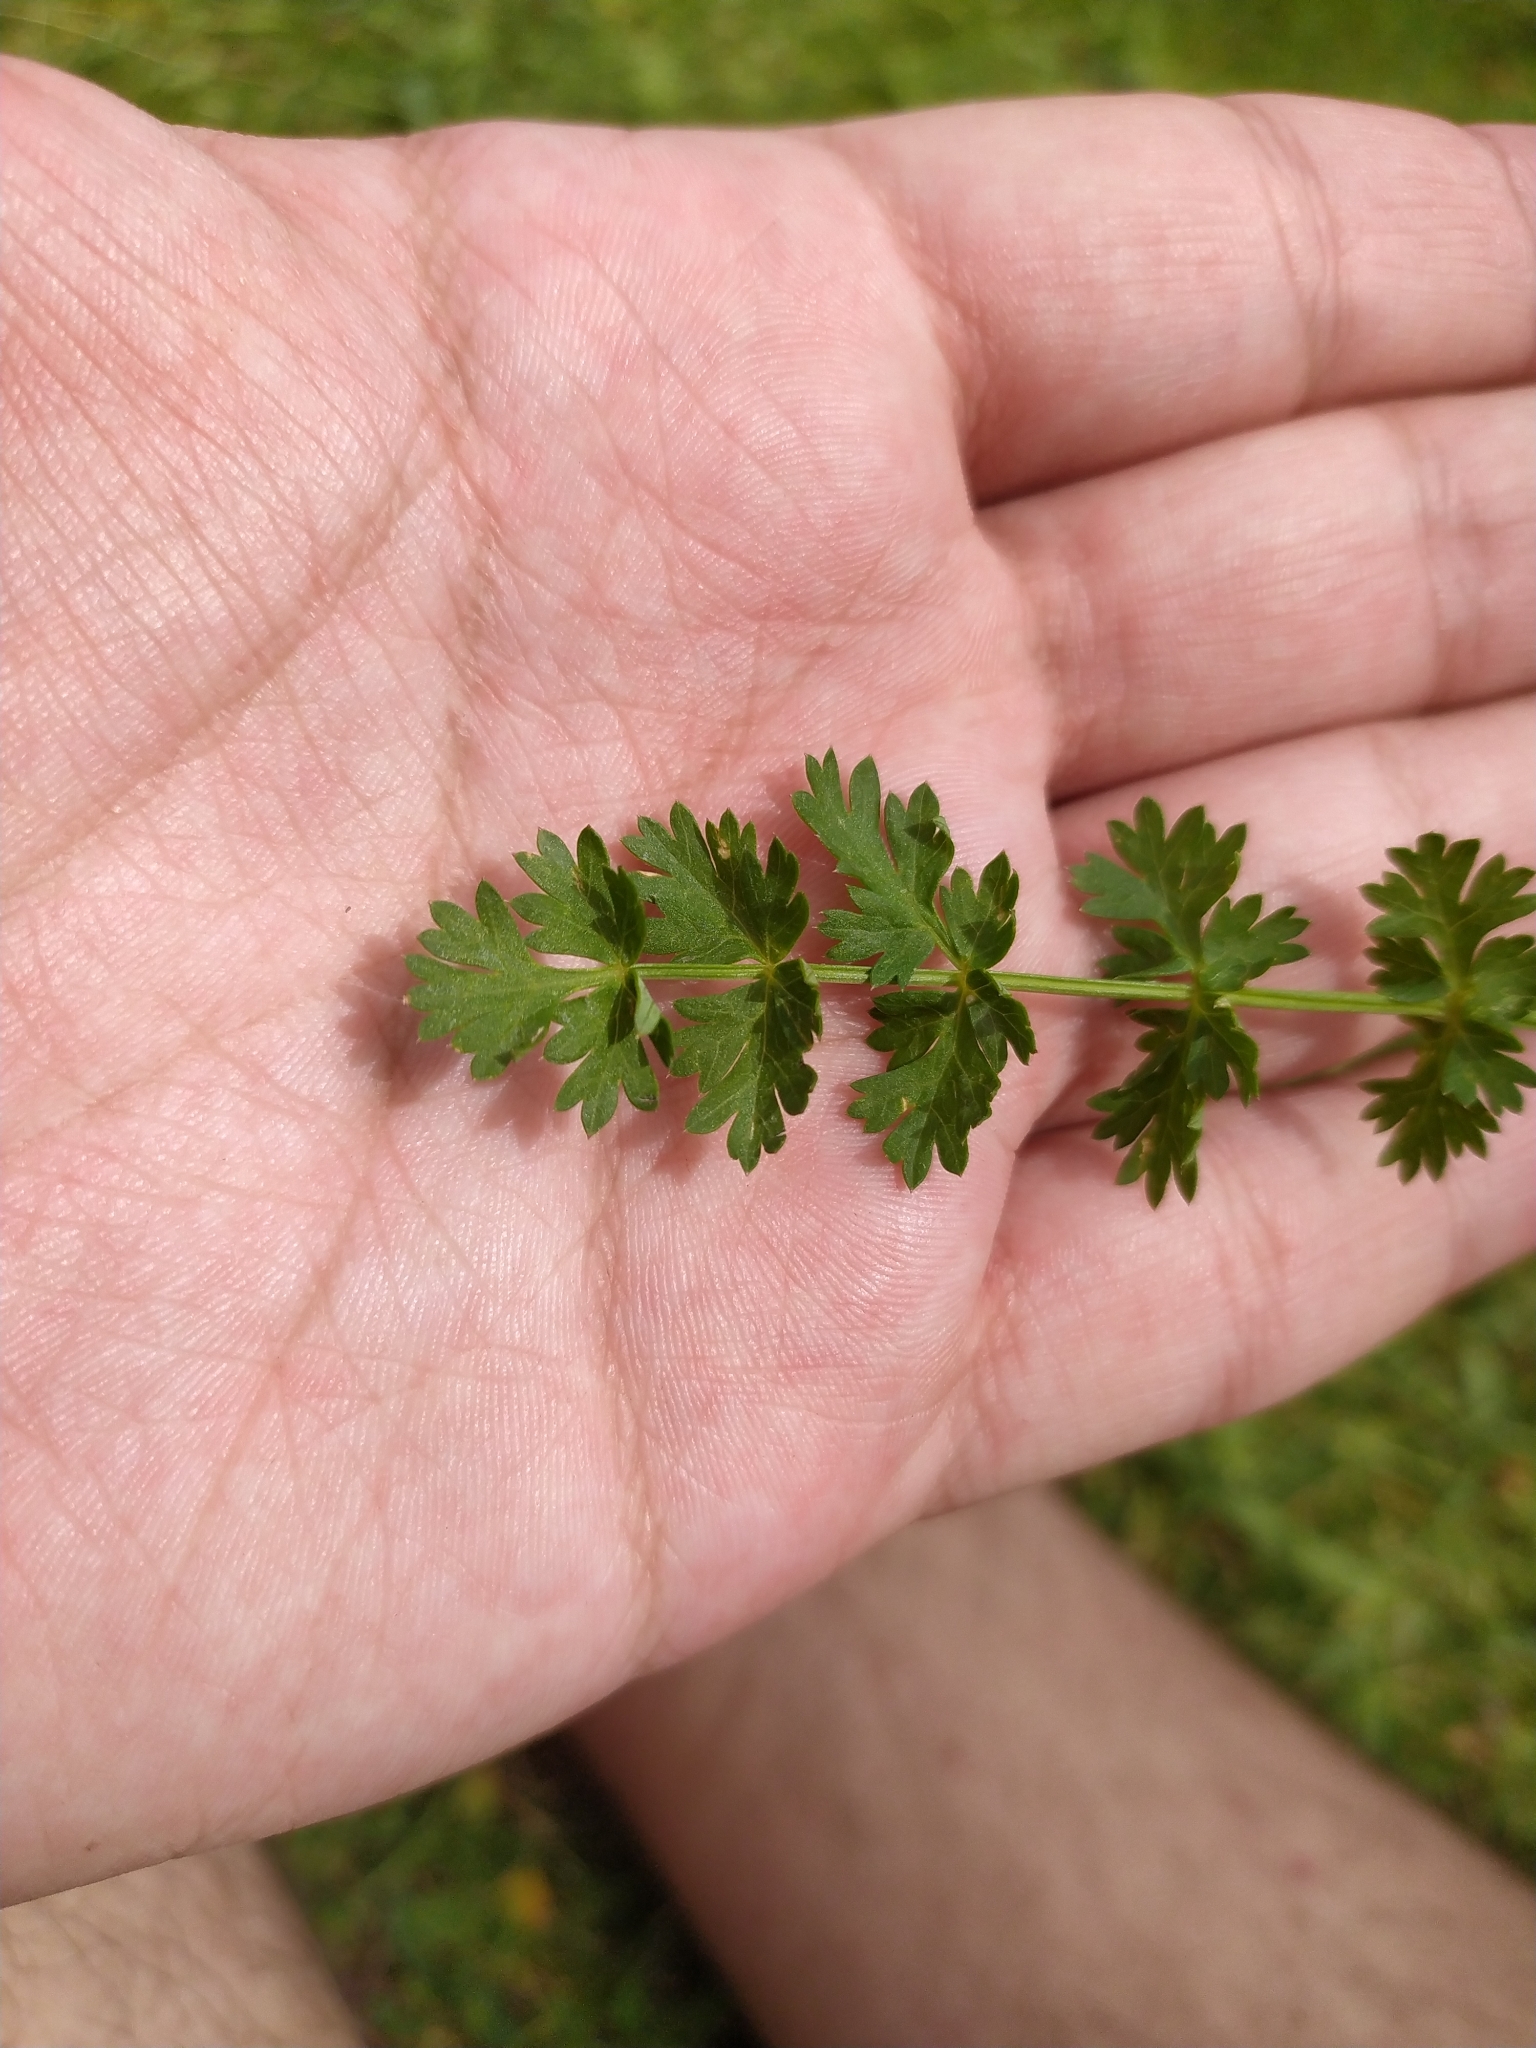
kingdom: Plantae
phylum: Tracheophyta
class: Magnoliopsida
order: Rosales
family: Rosaceae
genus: Filipendula
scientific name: Filipendula vulgaris
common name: Dropwort
